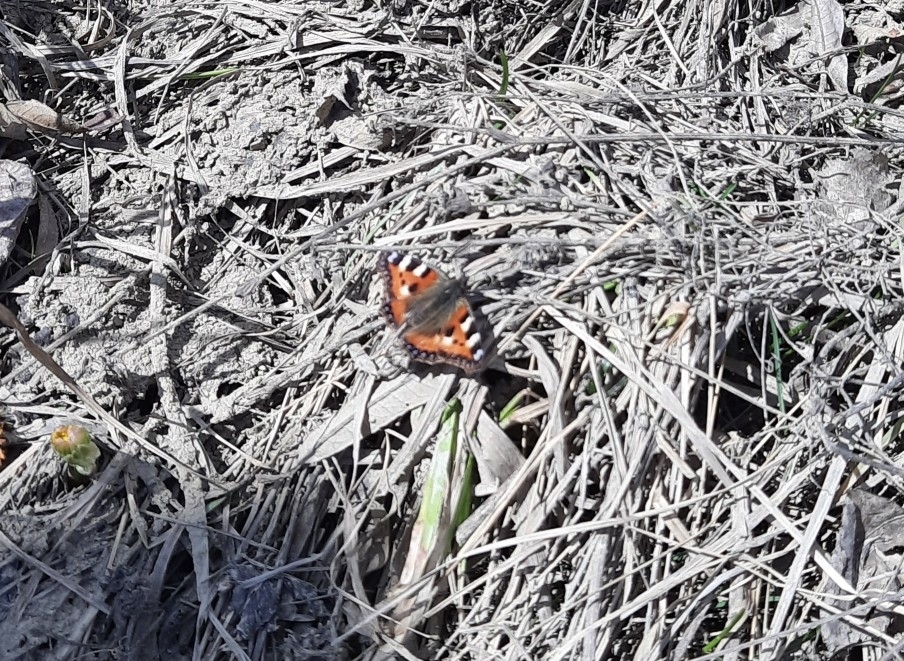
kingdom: Animalia
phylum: Arthropoda
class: Insecta
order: Lepidoptera
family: Nymphalidae
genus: Aglais
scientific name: Aglais urticae
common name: Small tortoiseshell
